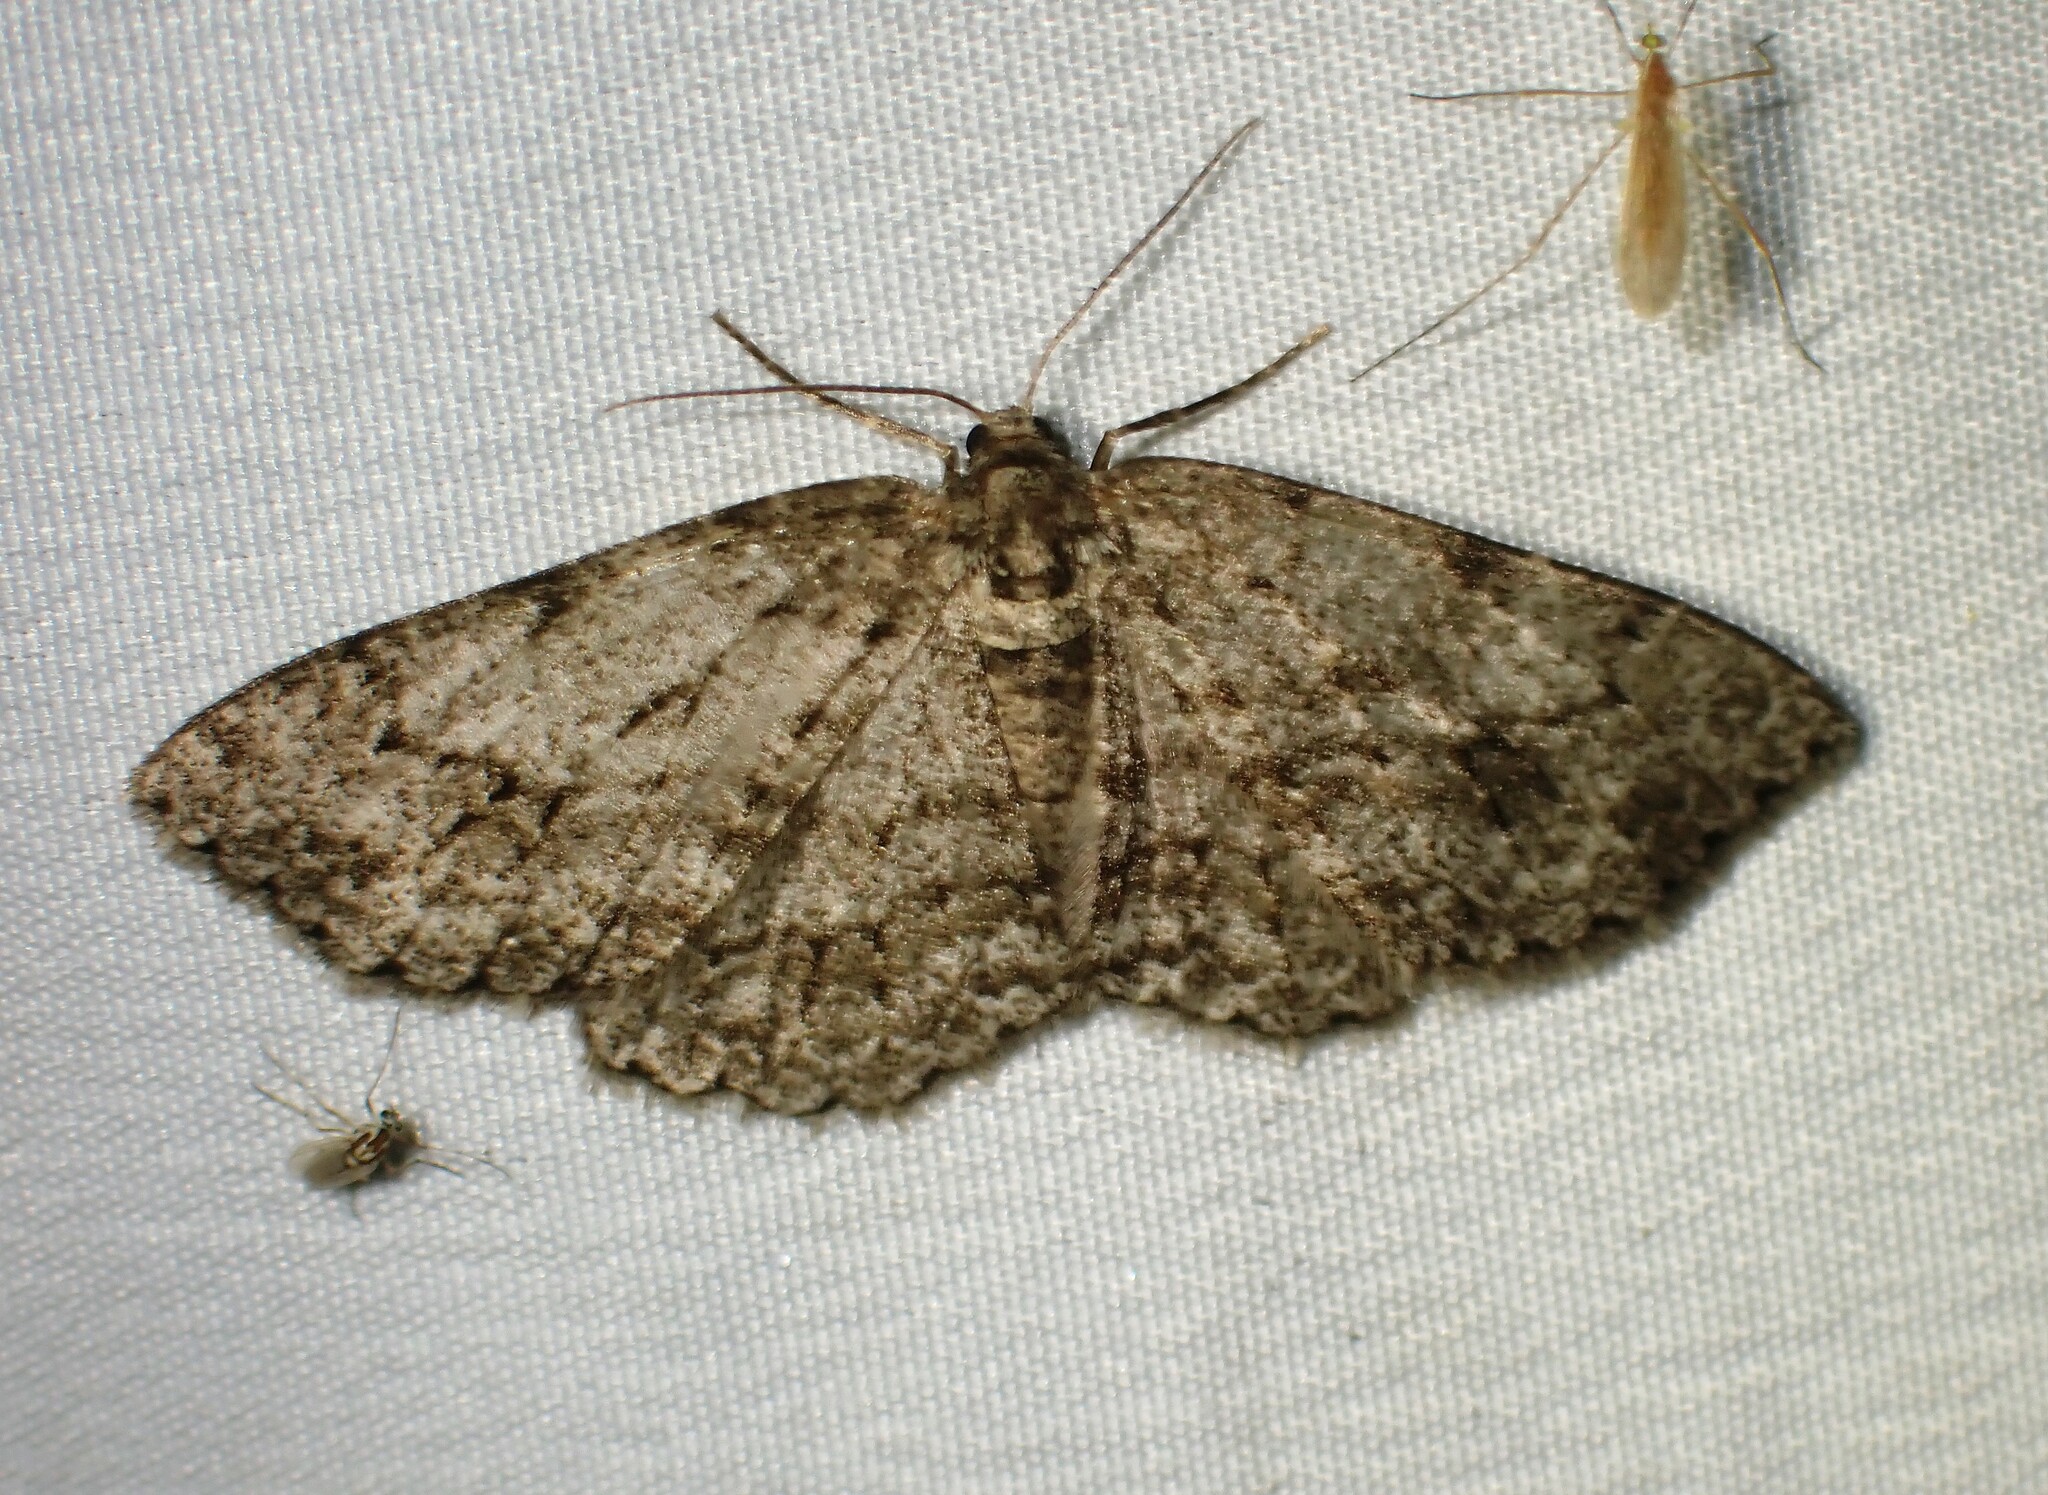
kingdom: Animalia
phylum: Arthropoda
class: Insecta
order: Lepidoptera
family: Geometridae
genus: Ectropis
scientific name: Ectropis crepuscularia
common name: Engrailed
